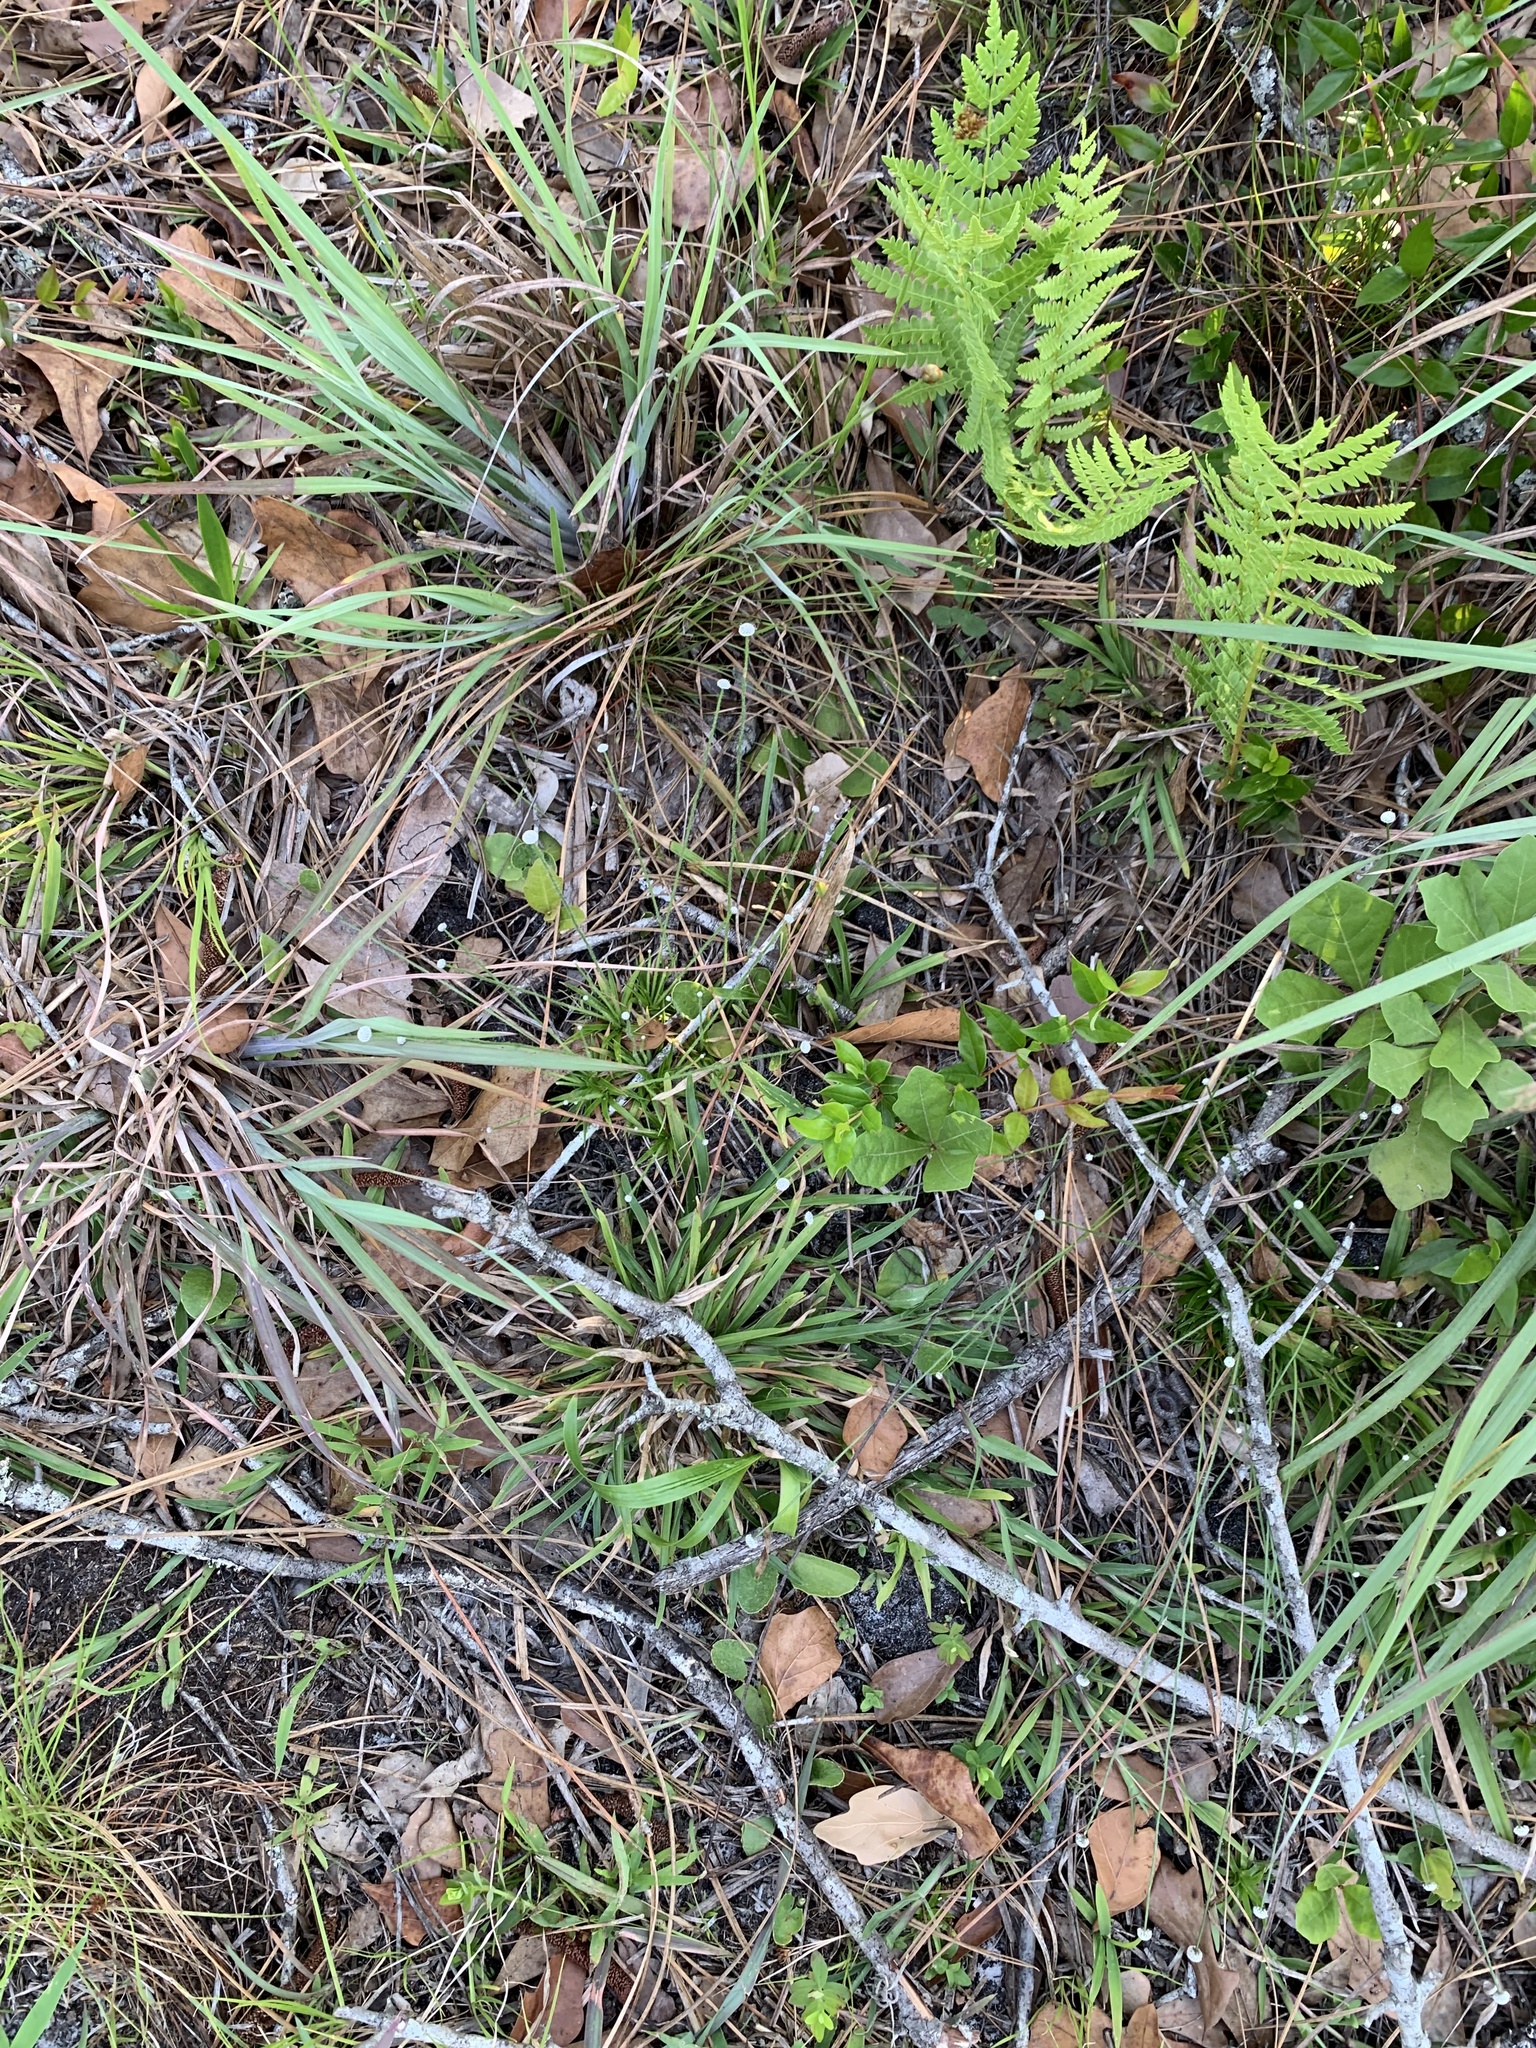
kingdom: Plantae
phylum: Tracheophyta
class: Liliopsida
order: Poales
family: Eriocaulaceae
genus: Paepalanthus
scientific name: Paepalanthus anceps
